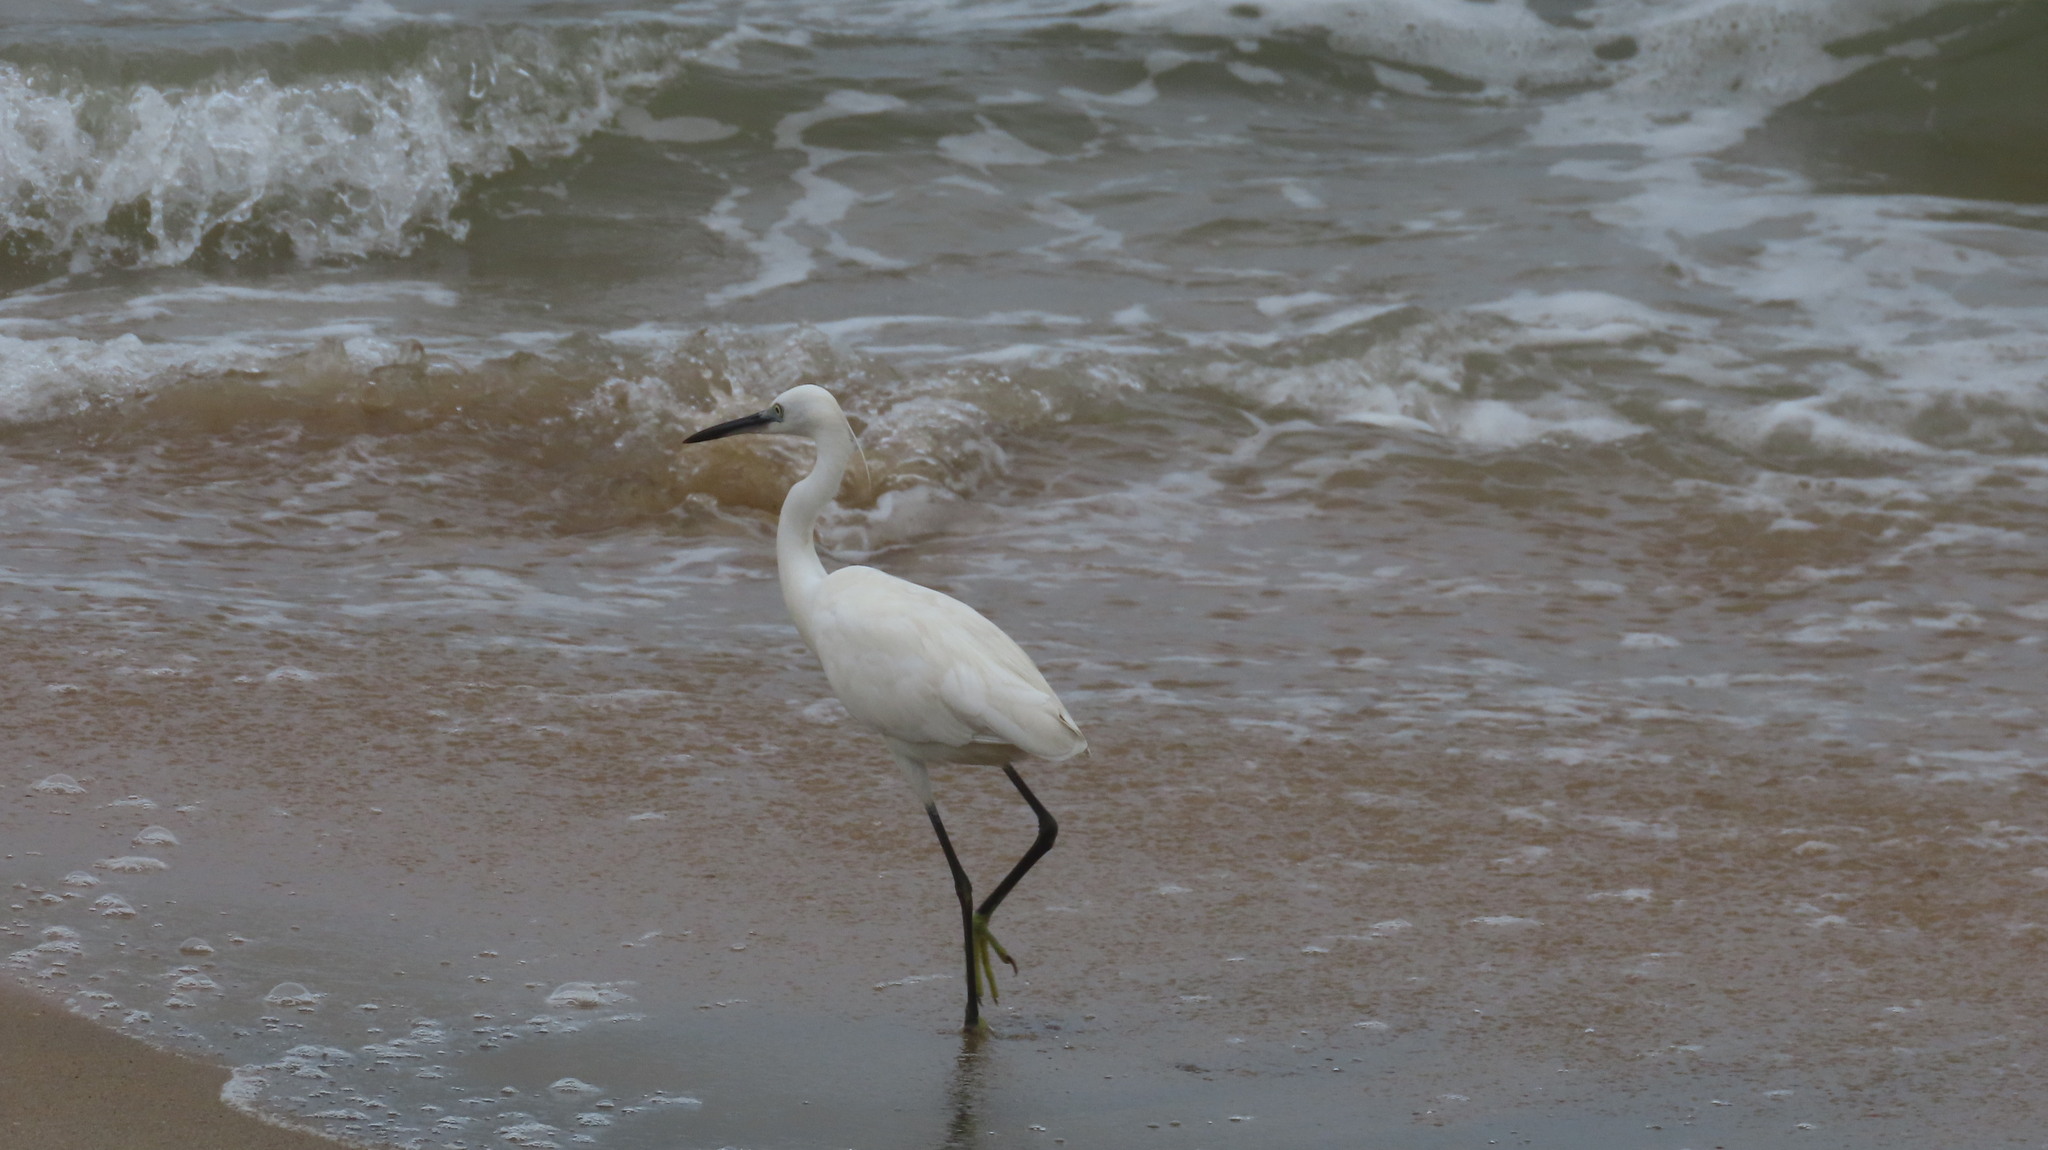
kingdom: Animalia
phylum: Chordata
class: Aves
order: Pelecaniformes
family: Ardeidae
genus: Egretta
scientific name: Egretta garzetta
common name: Little egret
